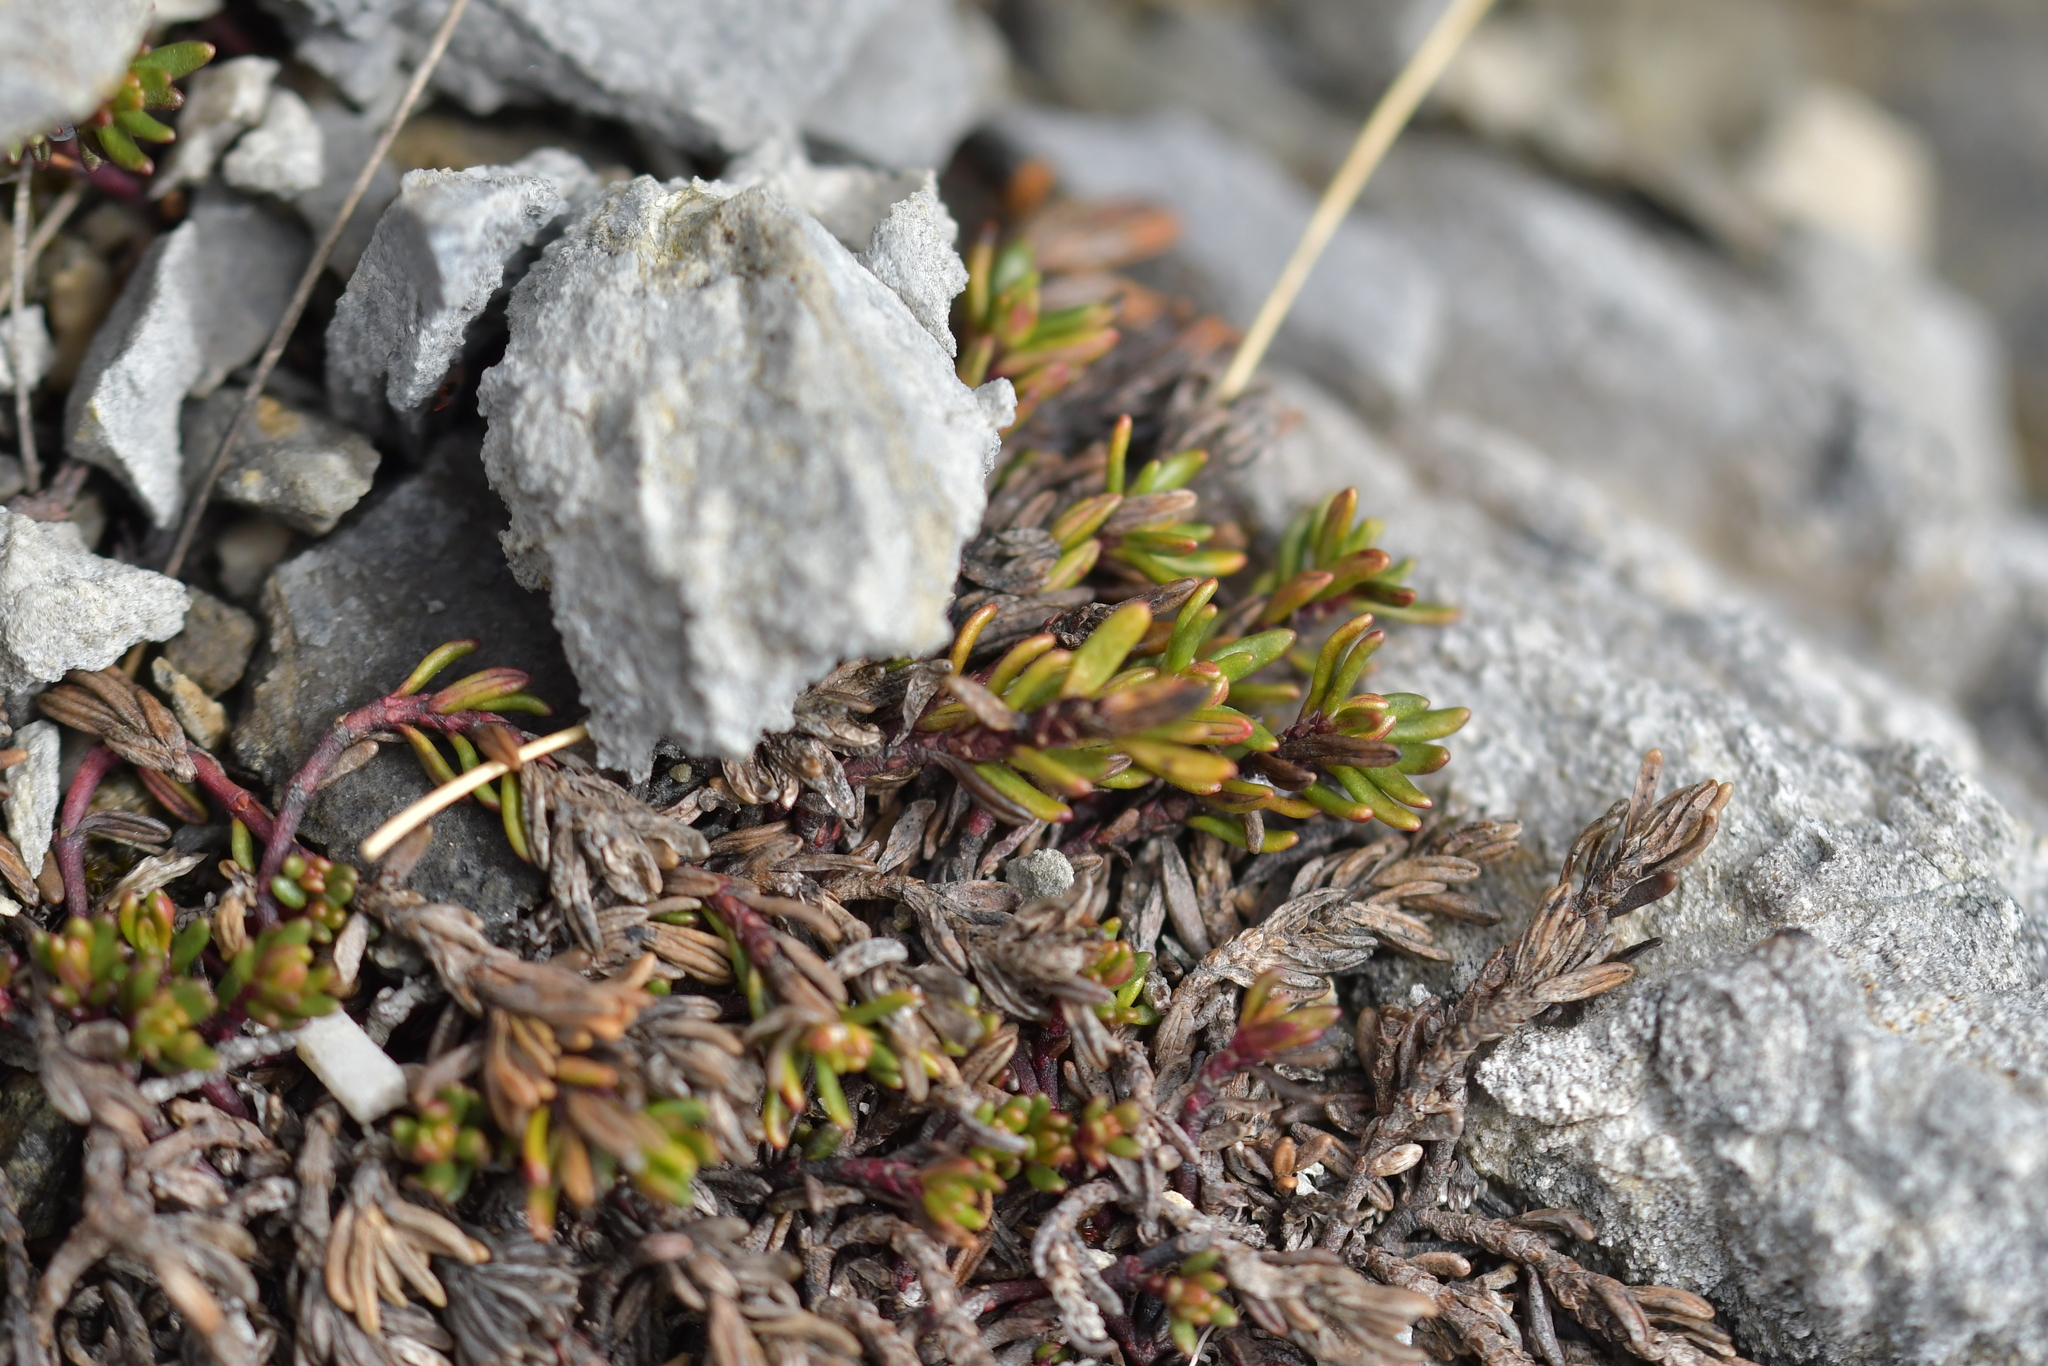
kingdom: Plantae
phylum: Tracheophyta
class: Magnoliopsida
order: Malpighiales
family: Phyllanthaceae
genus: Poranthera
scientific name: Poranthera alpina
